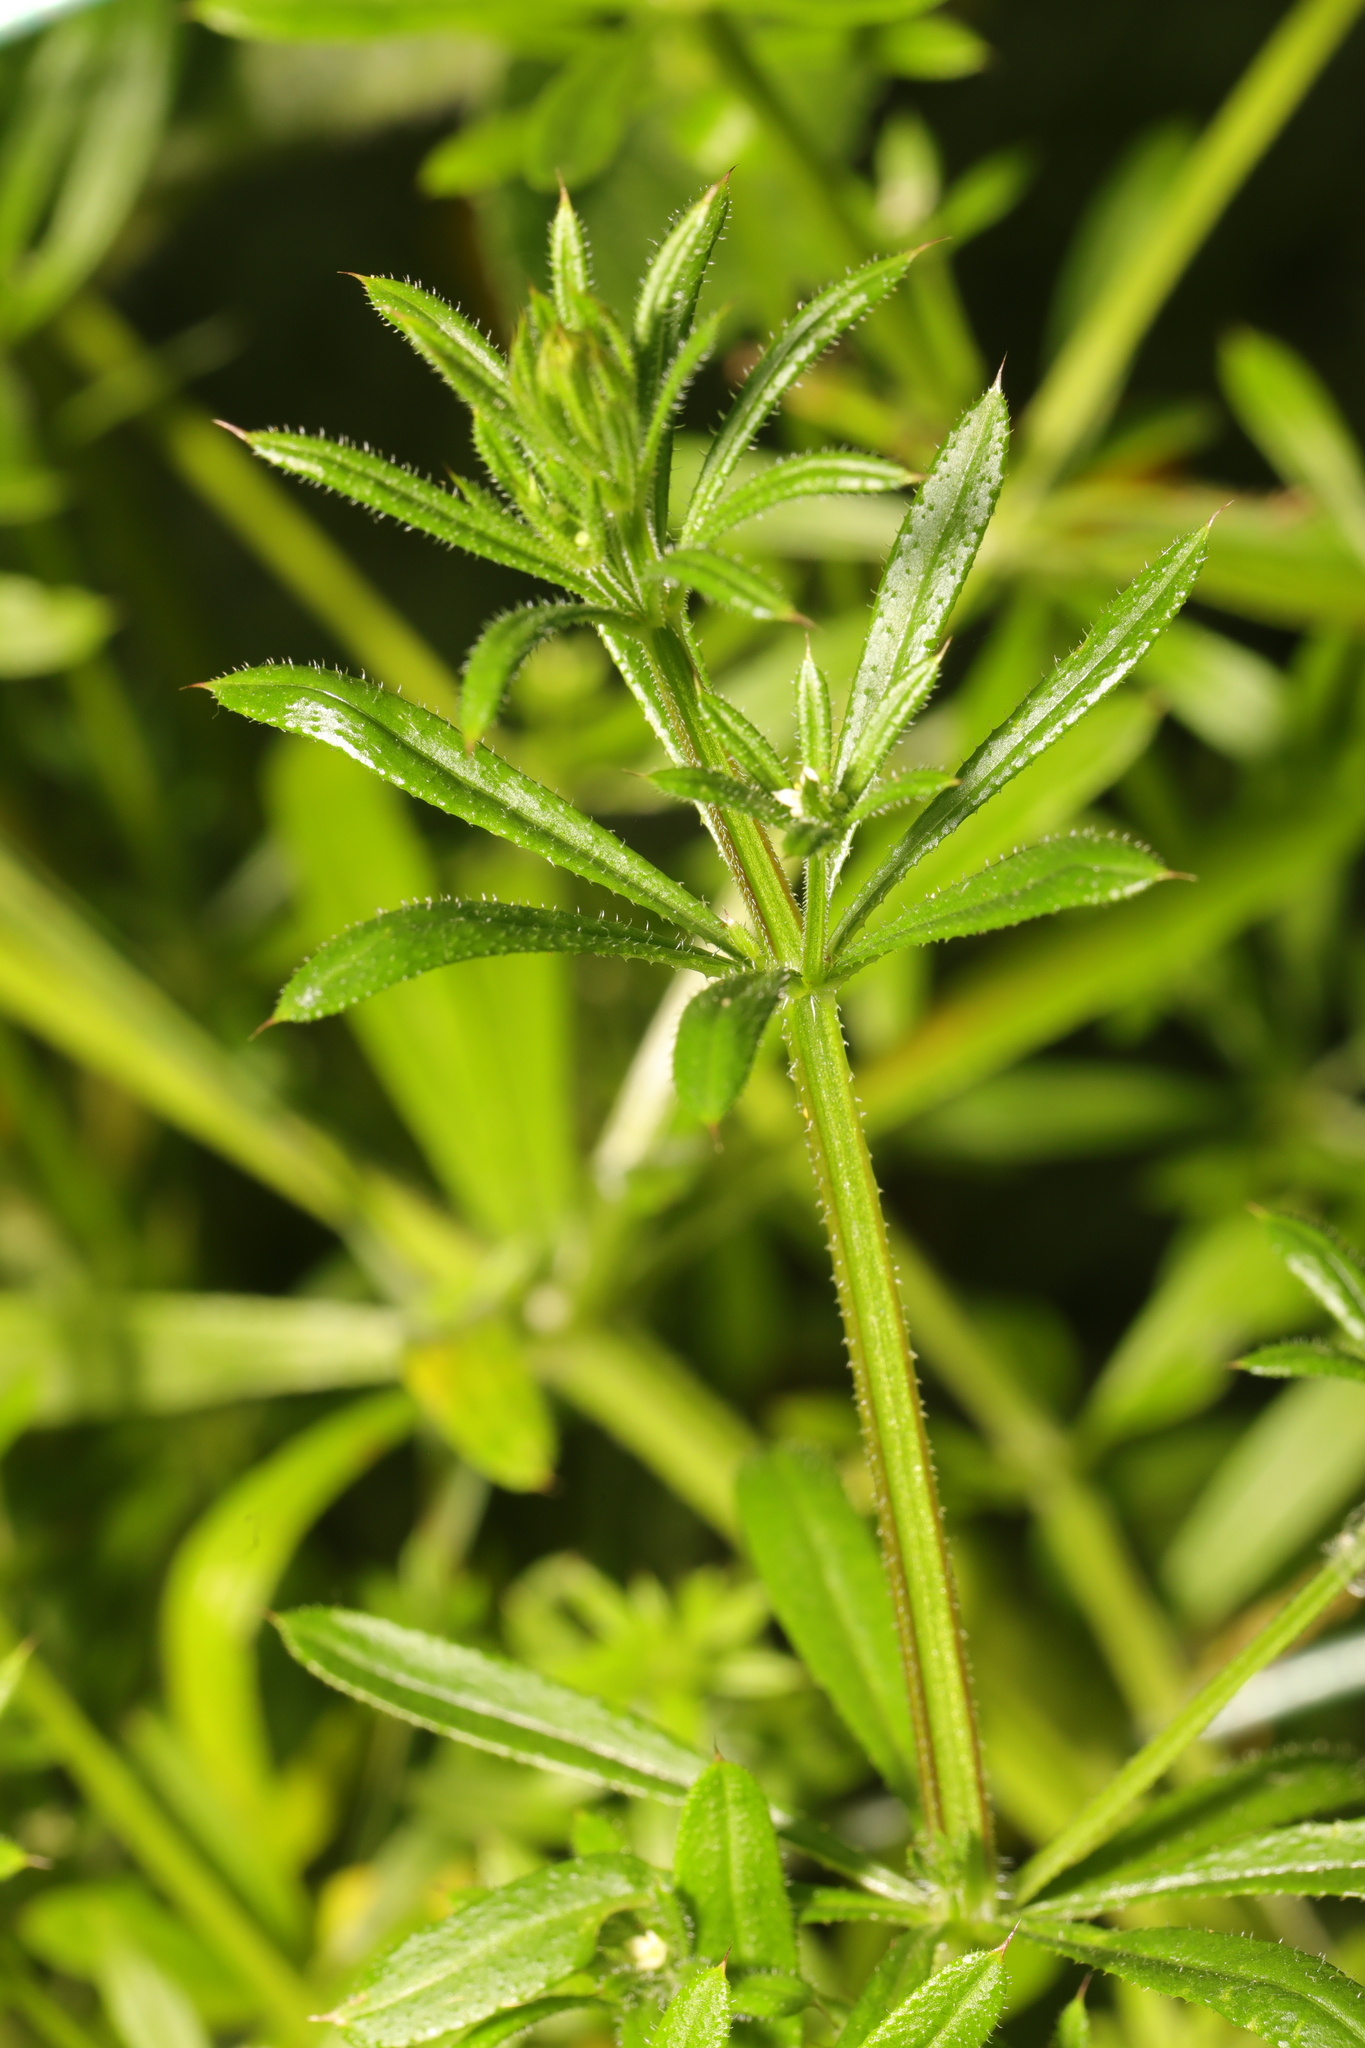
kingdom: Plantae
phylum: Tracheophyta
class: Magnoliopsida
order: Gentianales
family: Rubiaceae
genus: Galium
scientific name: Galium aparine
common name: Cleavers
